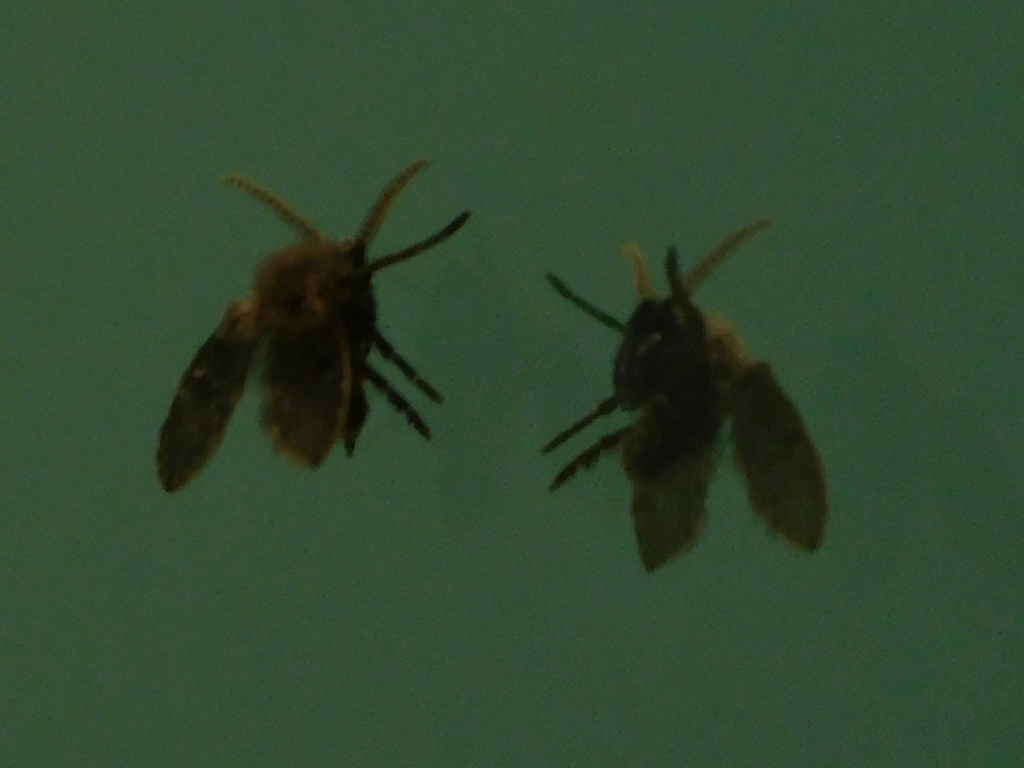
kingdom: Animalia
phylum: Arthropoda
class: Insecta
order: Diptera
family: Psychodidae
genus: Clogmia
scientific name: Clogmia albipunctatus
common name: White-spotted moth fly
